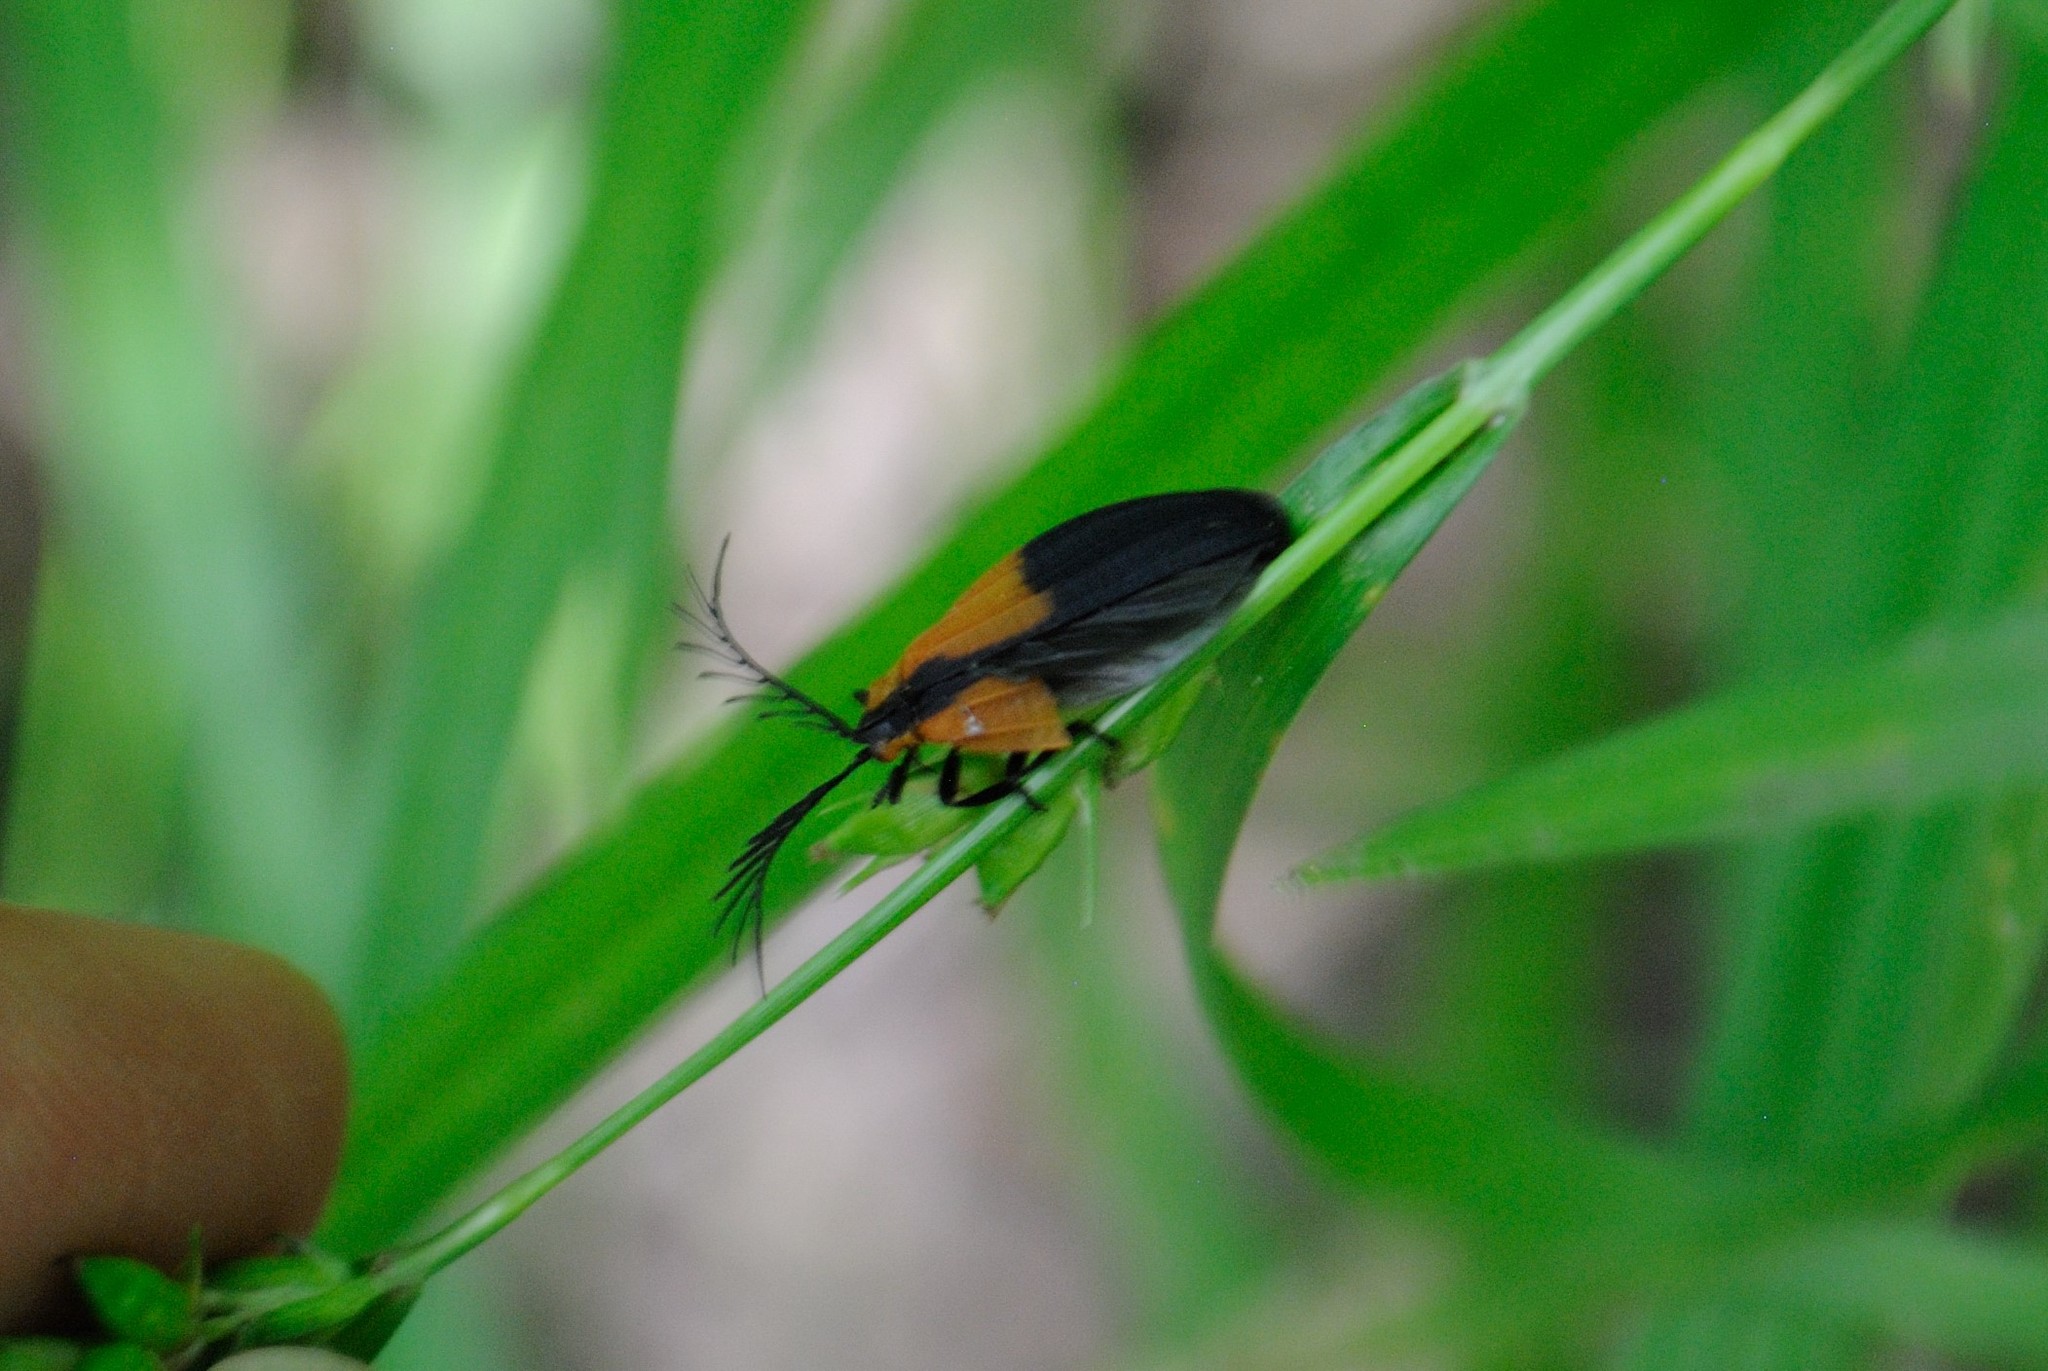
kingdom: Animalia
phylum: Arthropoda
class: Insecta
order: Coleoptera
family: Lycidae
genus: Caenia
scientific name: Caenia dimidiata
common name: Terminal net-winged beetle
